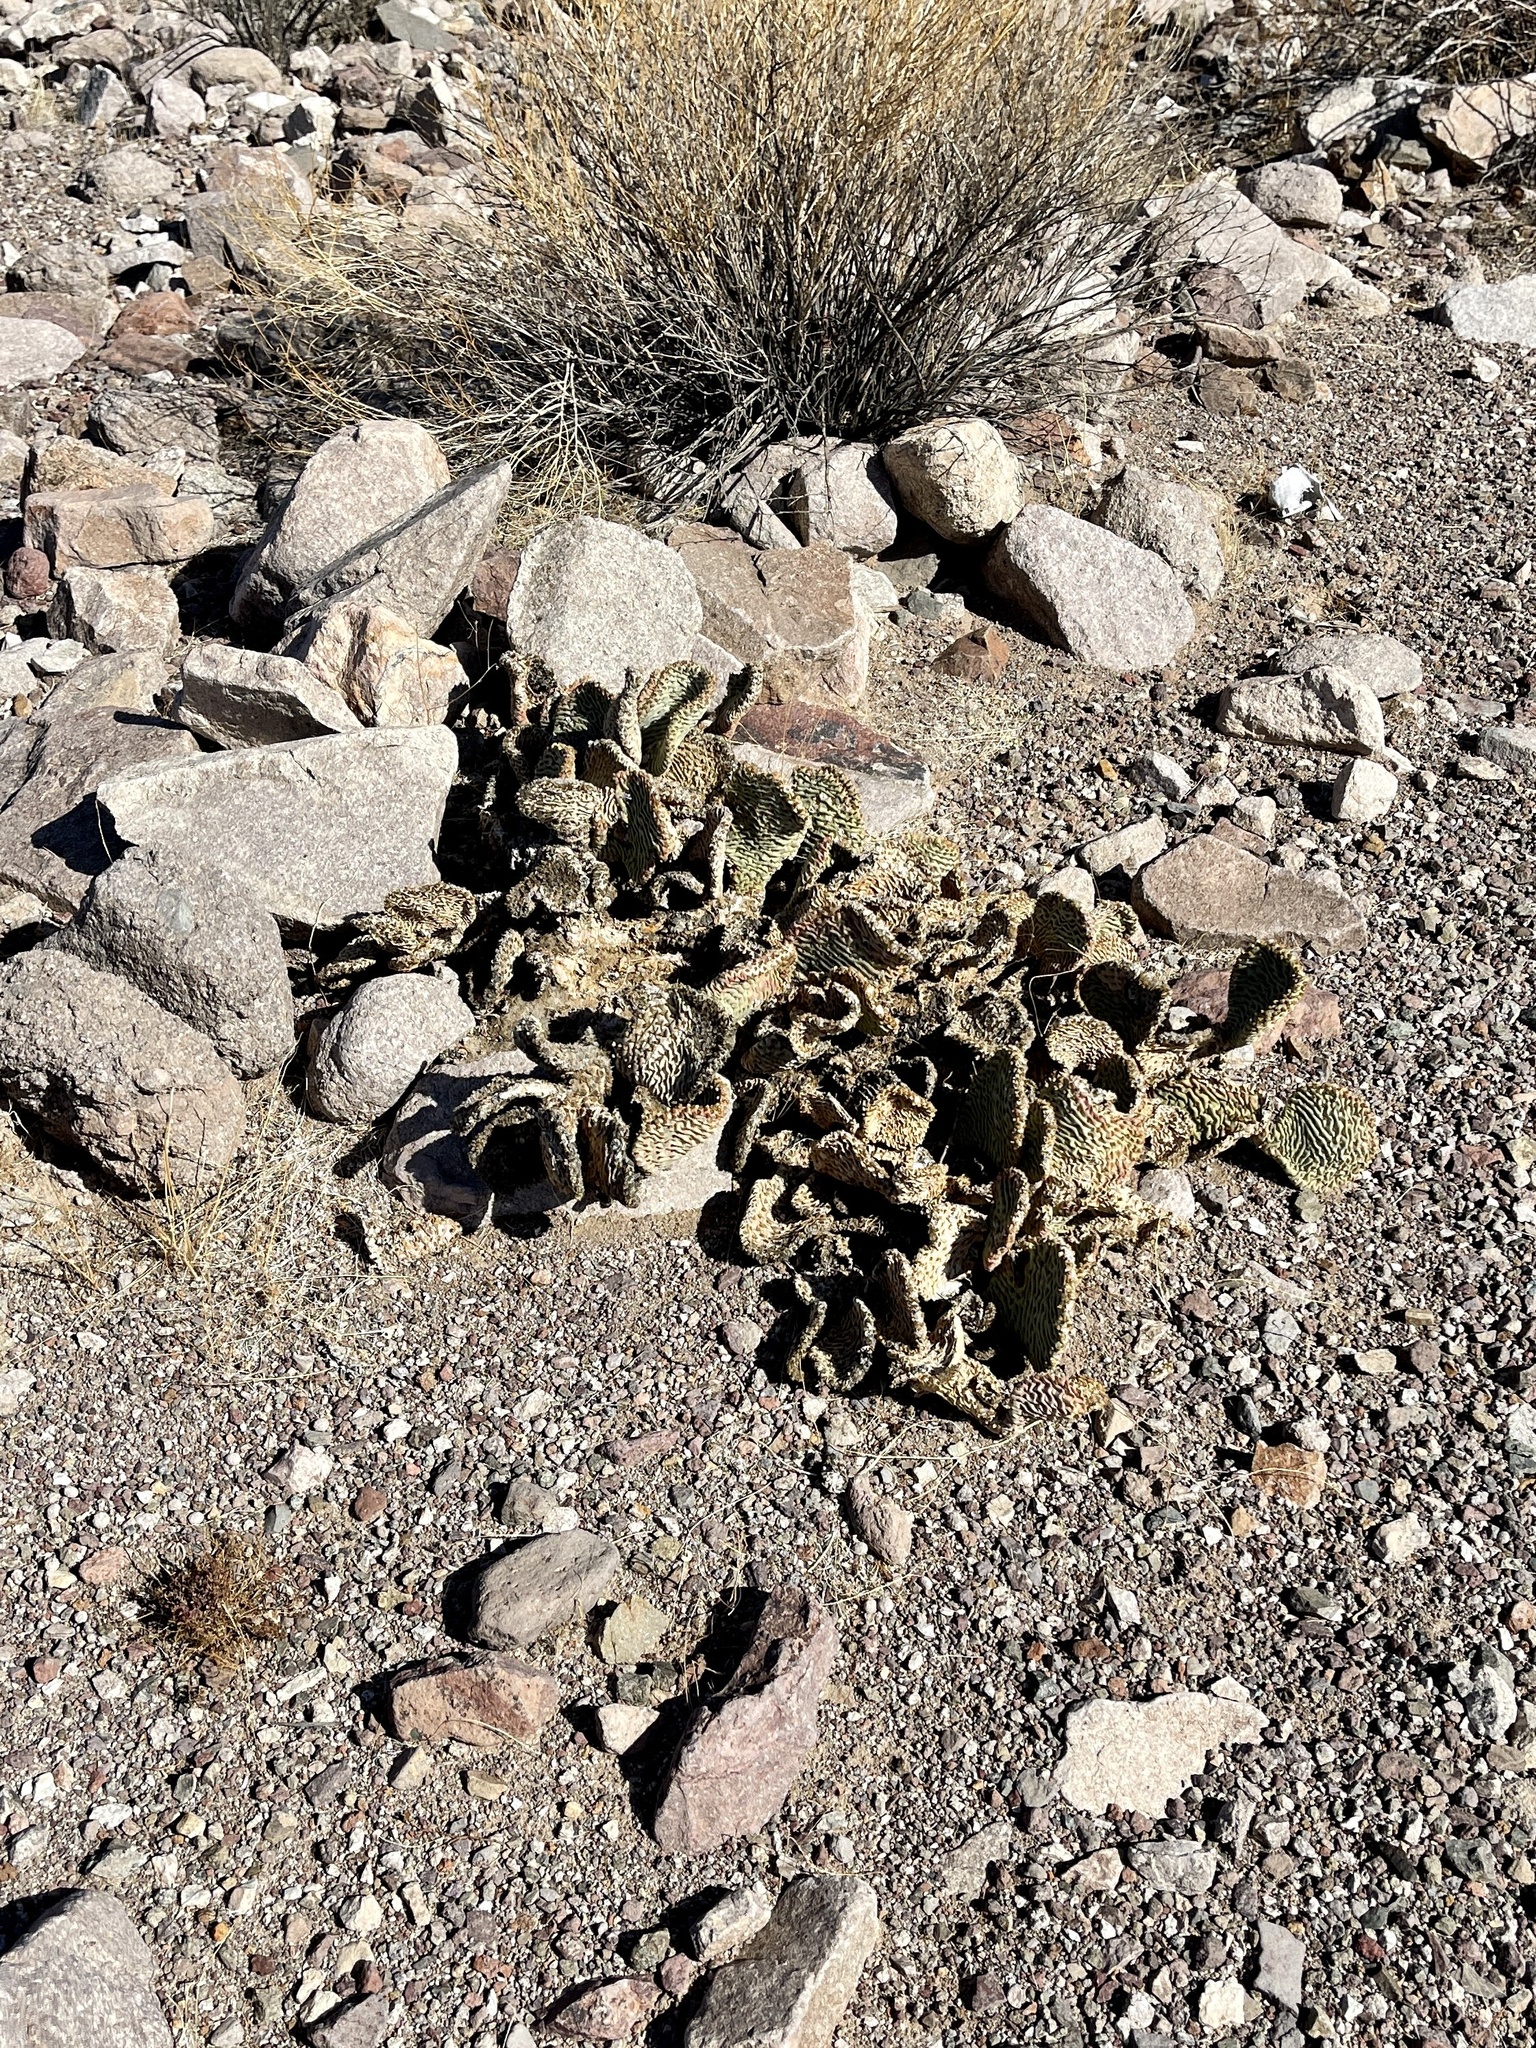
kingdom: Plantae
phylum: Tracheophyta
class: Magnoliopsida
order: Caryophyllales
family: Cactaceae
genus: Opuntia
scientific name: Opuntia basilaris
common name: Beavertail prickly-pear
